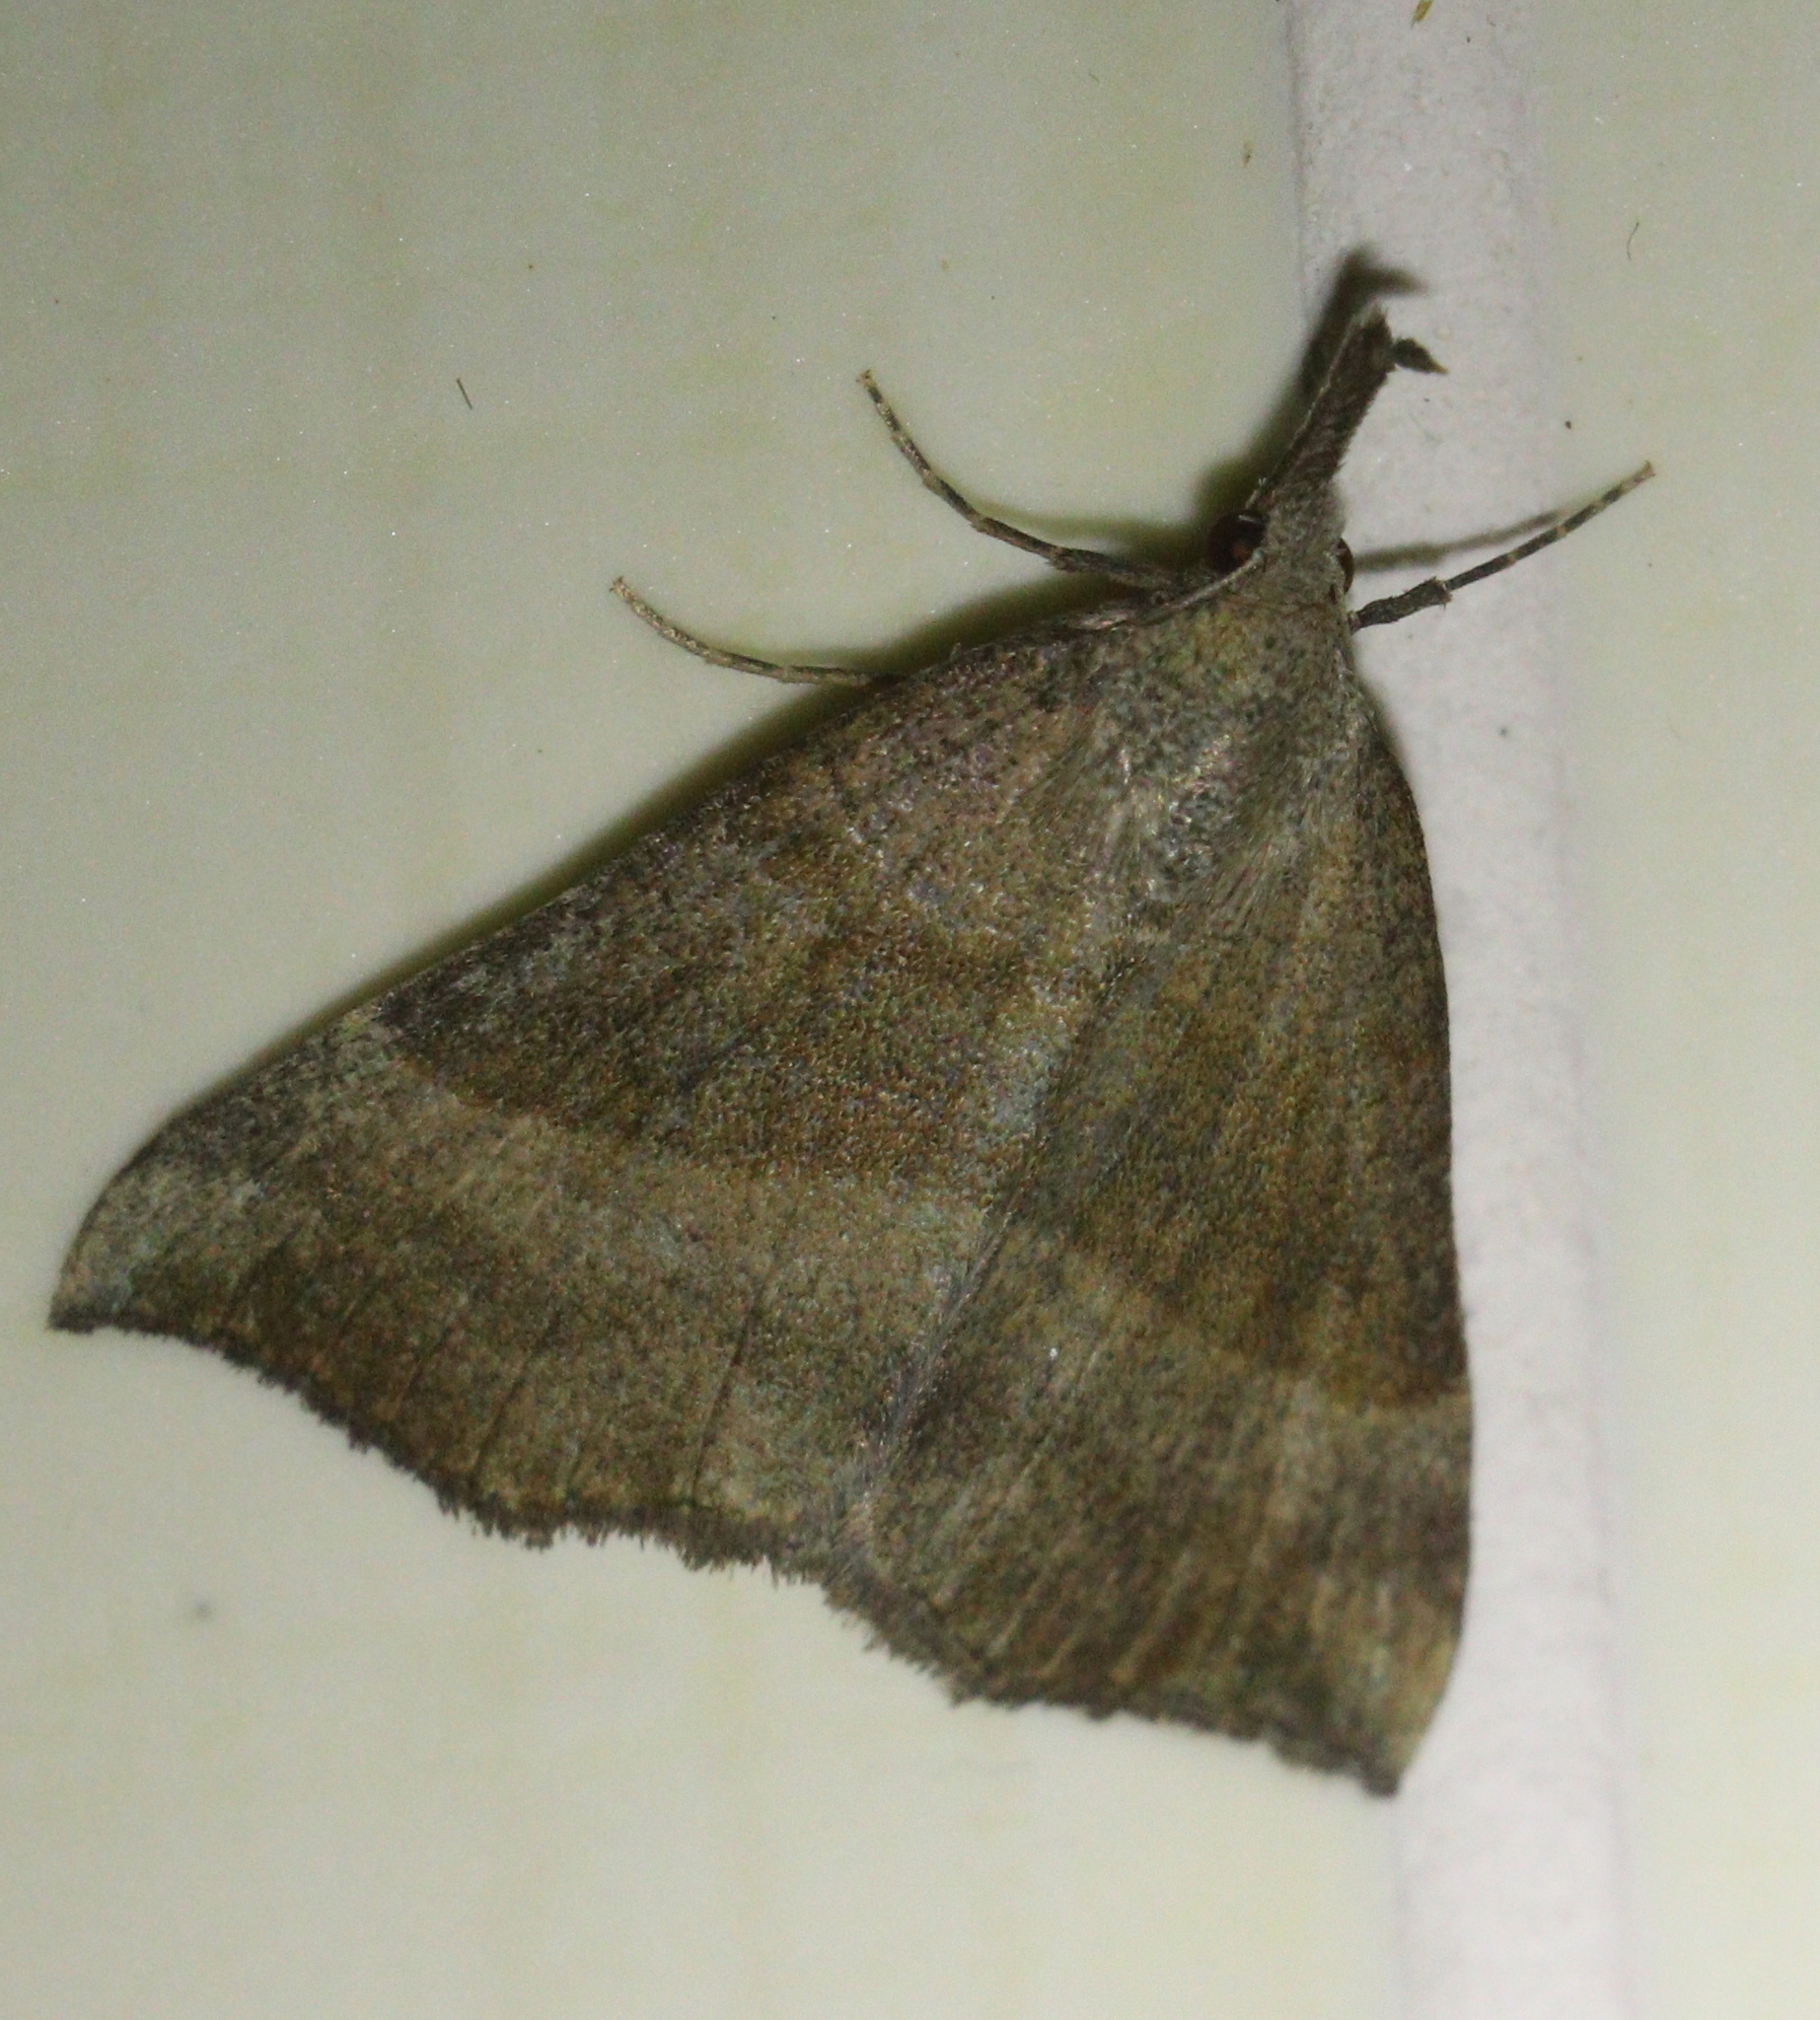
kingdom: Animalia
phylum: Arthropoda
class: Insecta
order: Lepidoptera
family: Erebidae
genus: Hypena
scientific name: Hypena proboscidalis
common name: Snout
